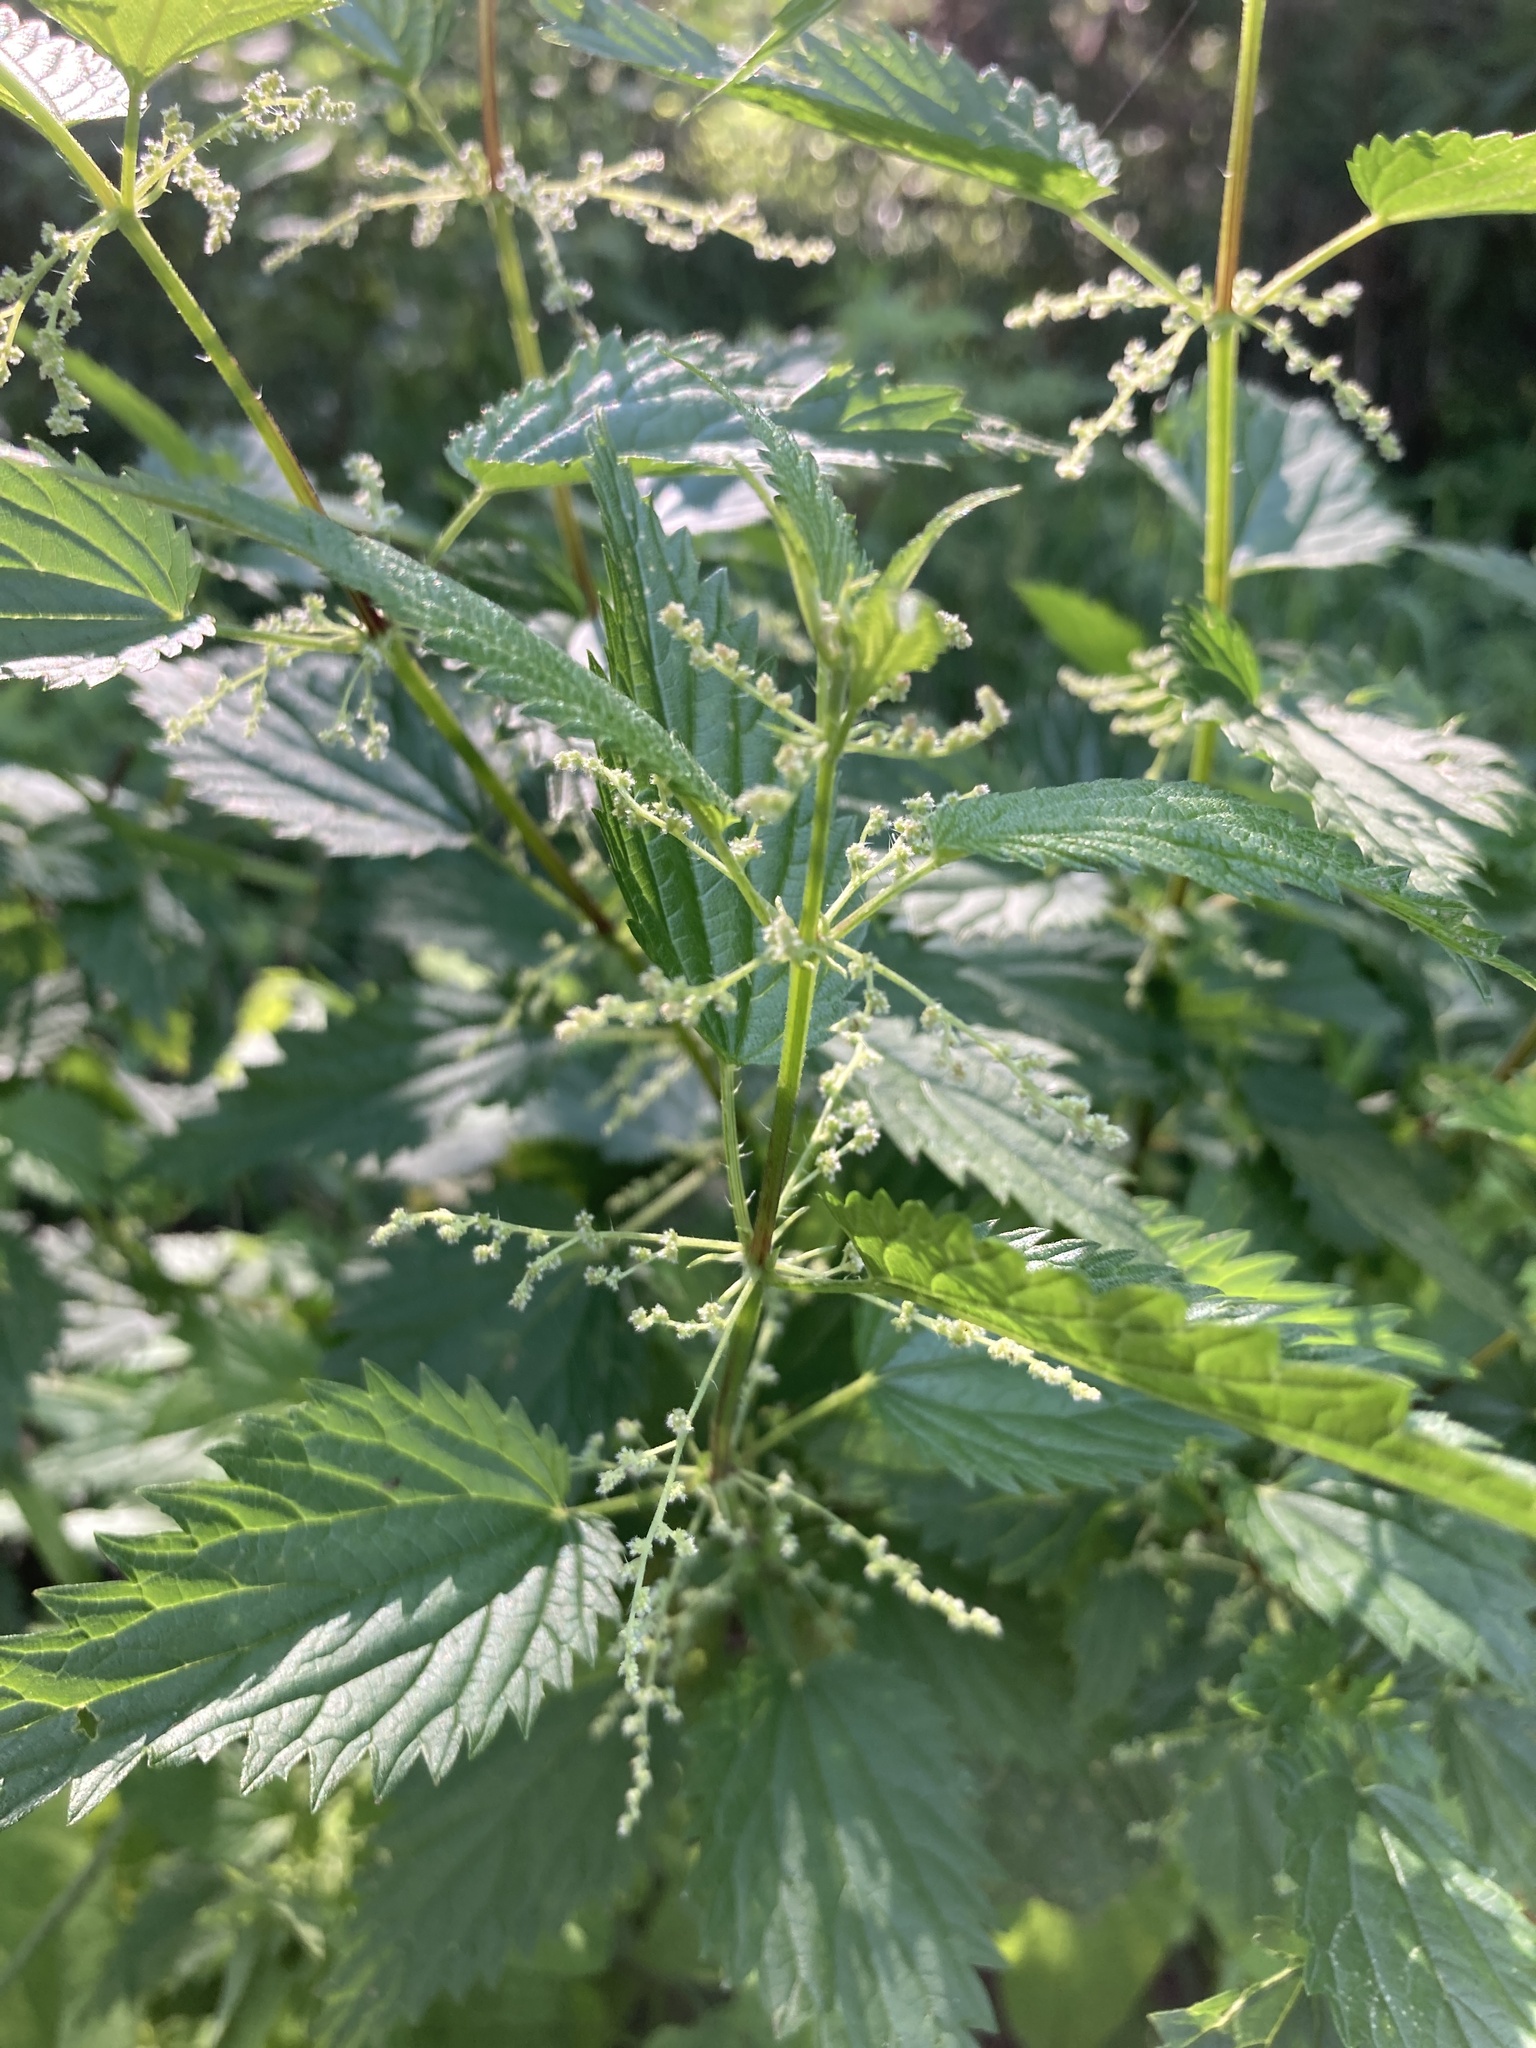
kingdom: Plantae
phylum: Tracheophyta
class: Magnoliopsida
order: Rosales
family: Urticaceae
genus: Urtica
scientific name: Urtica dioica
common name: Common nettle
